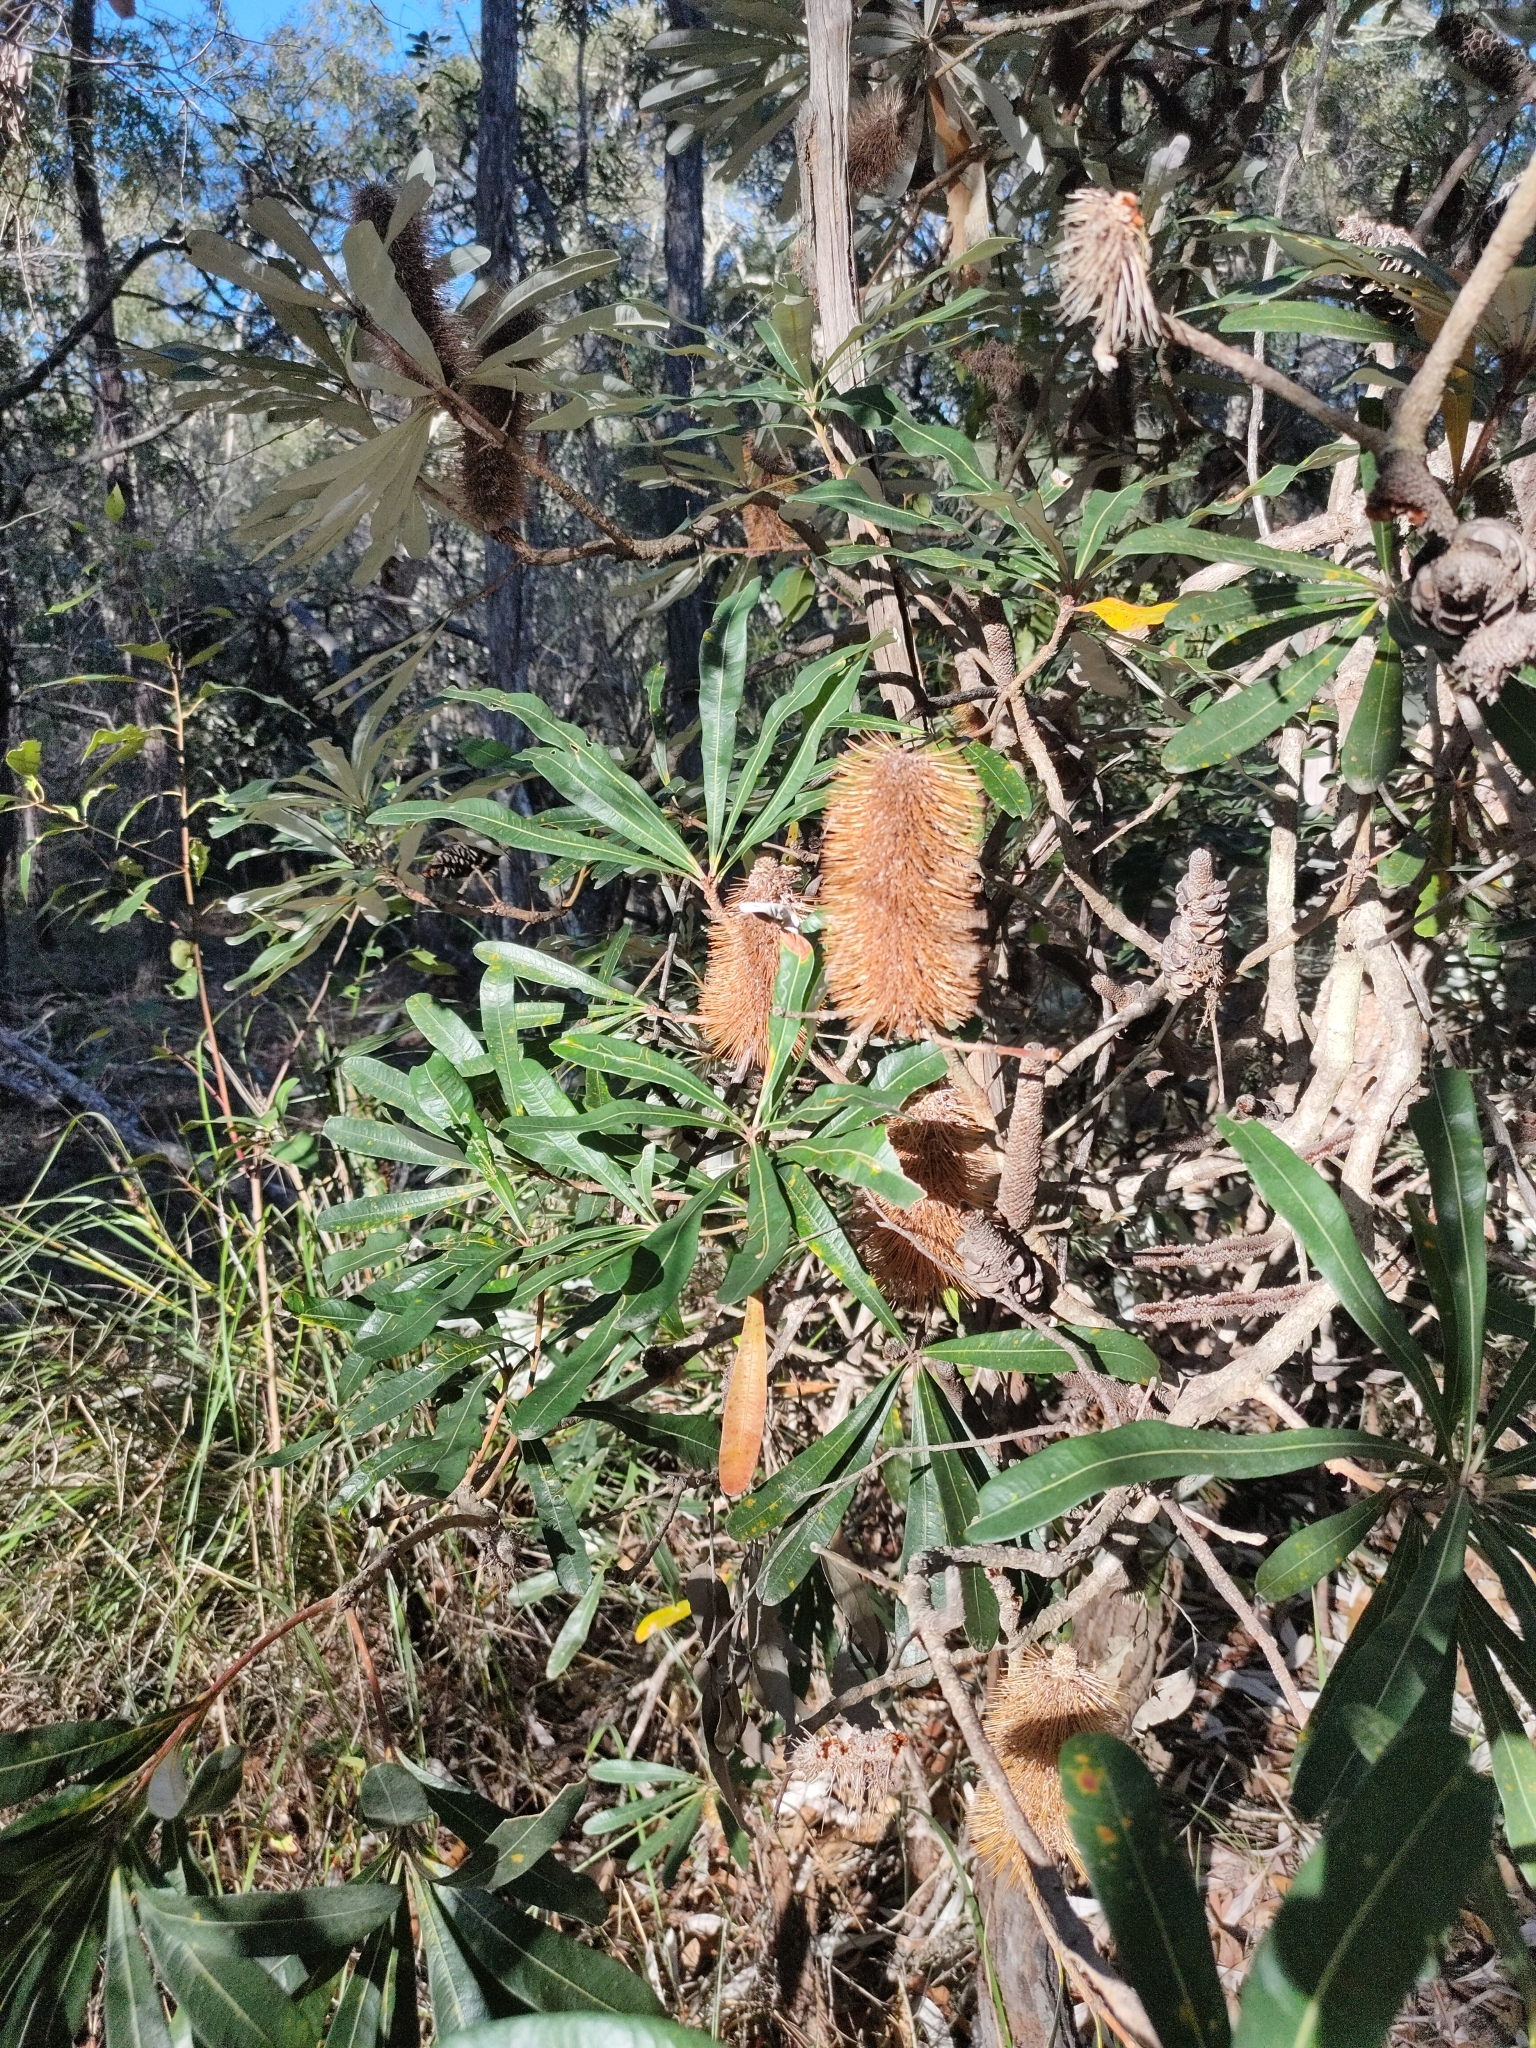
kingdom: Plantae
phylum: Tracheophyta
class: Magnoliopsida
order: Proteales
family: Proteaceae
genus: Banksia
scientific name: Banksia integrifolia
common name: White-honeysuckle
